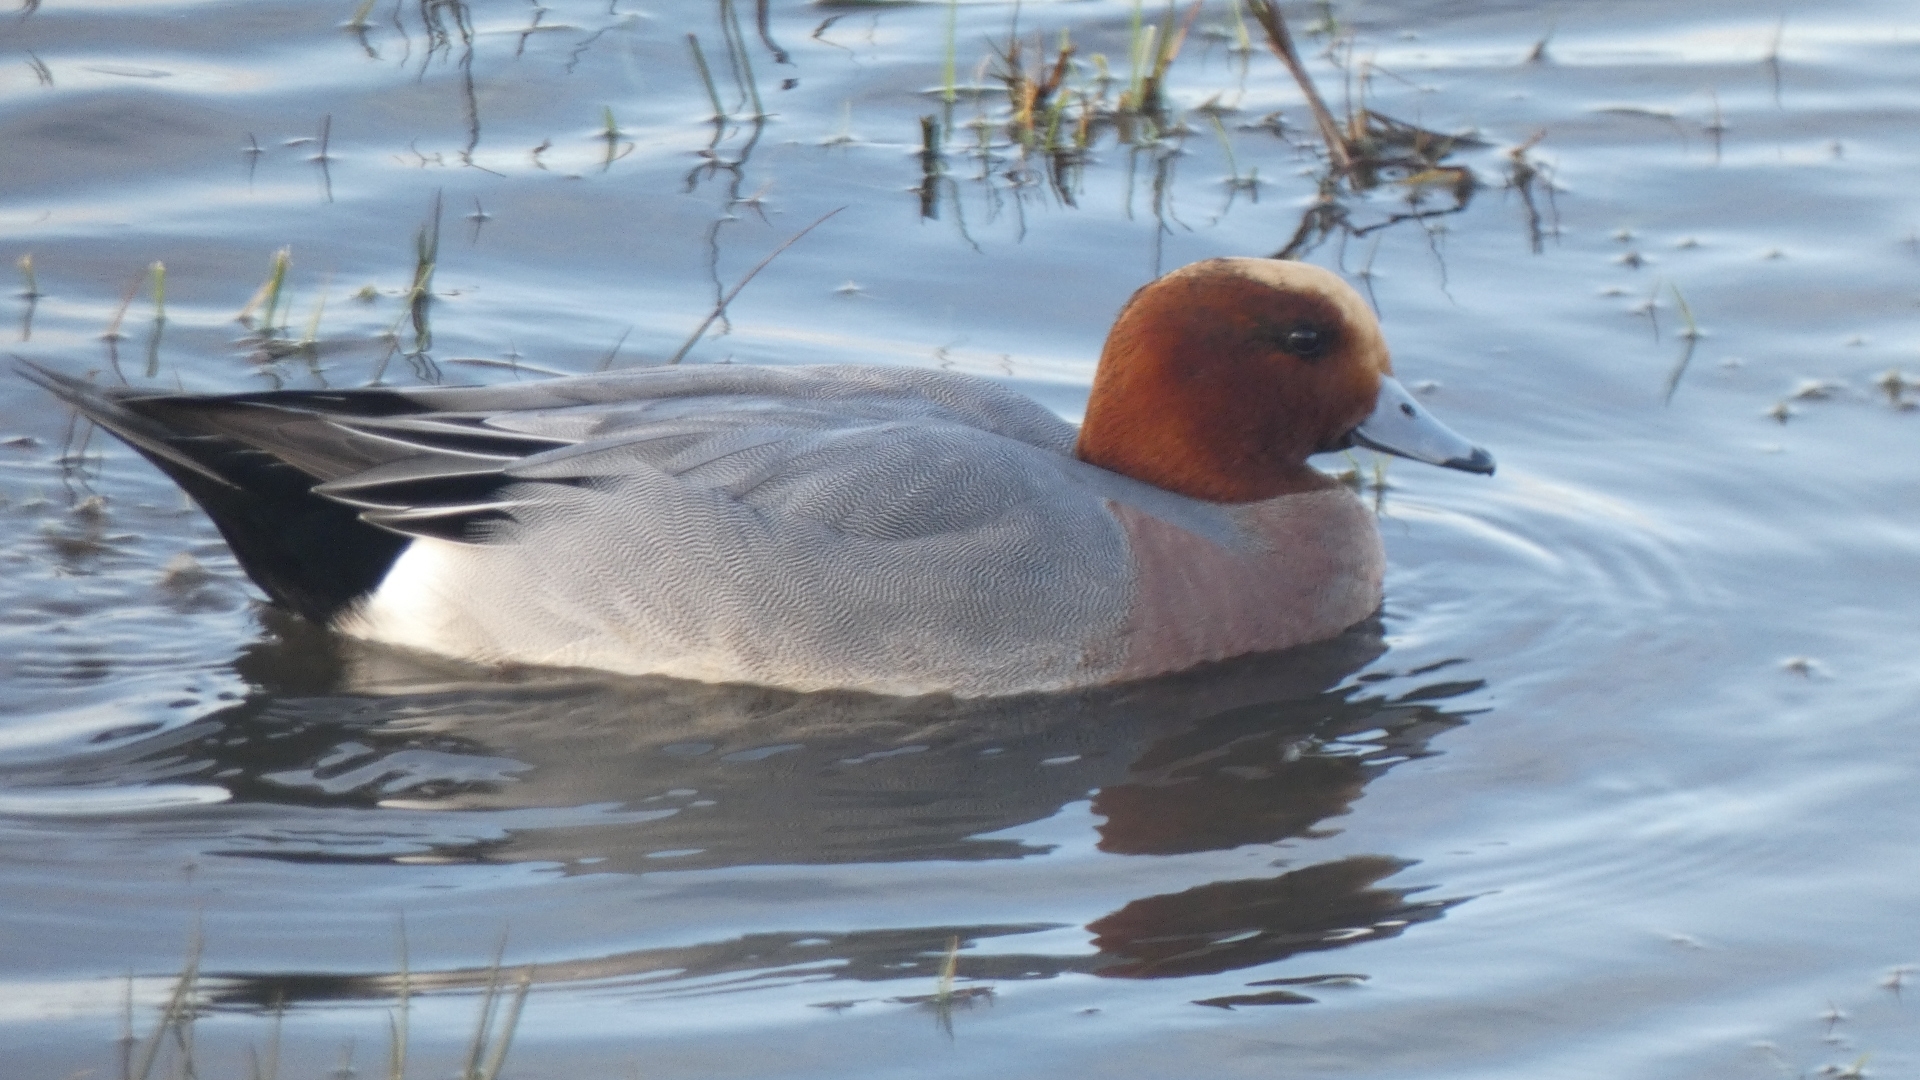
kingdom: Animalia
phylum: Chordata
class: Aves
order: Anseriformes
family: Anatidae
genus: Mareca
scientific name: Mareca penelope
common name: Eurasian wigeon
